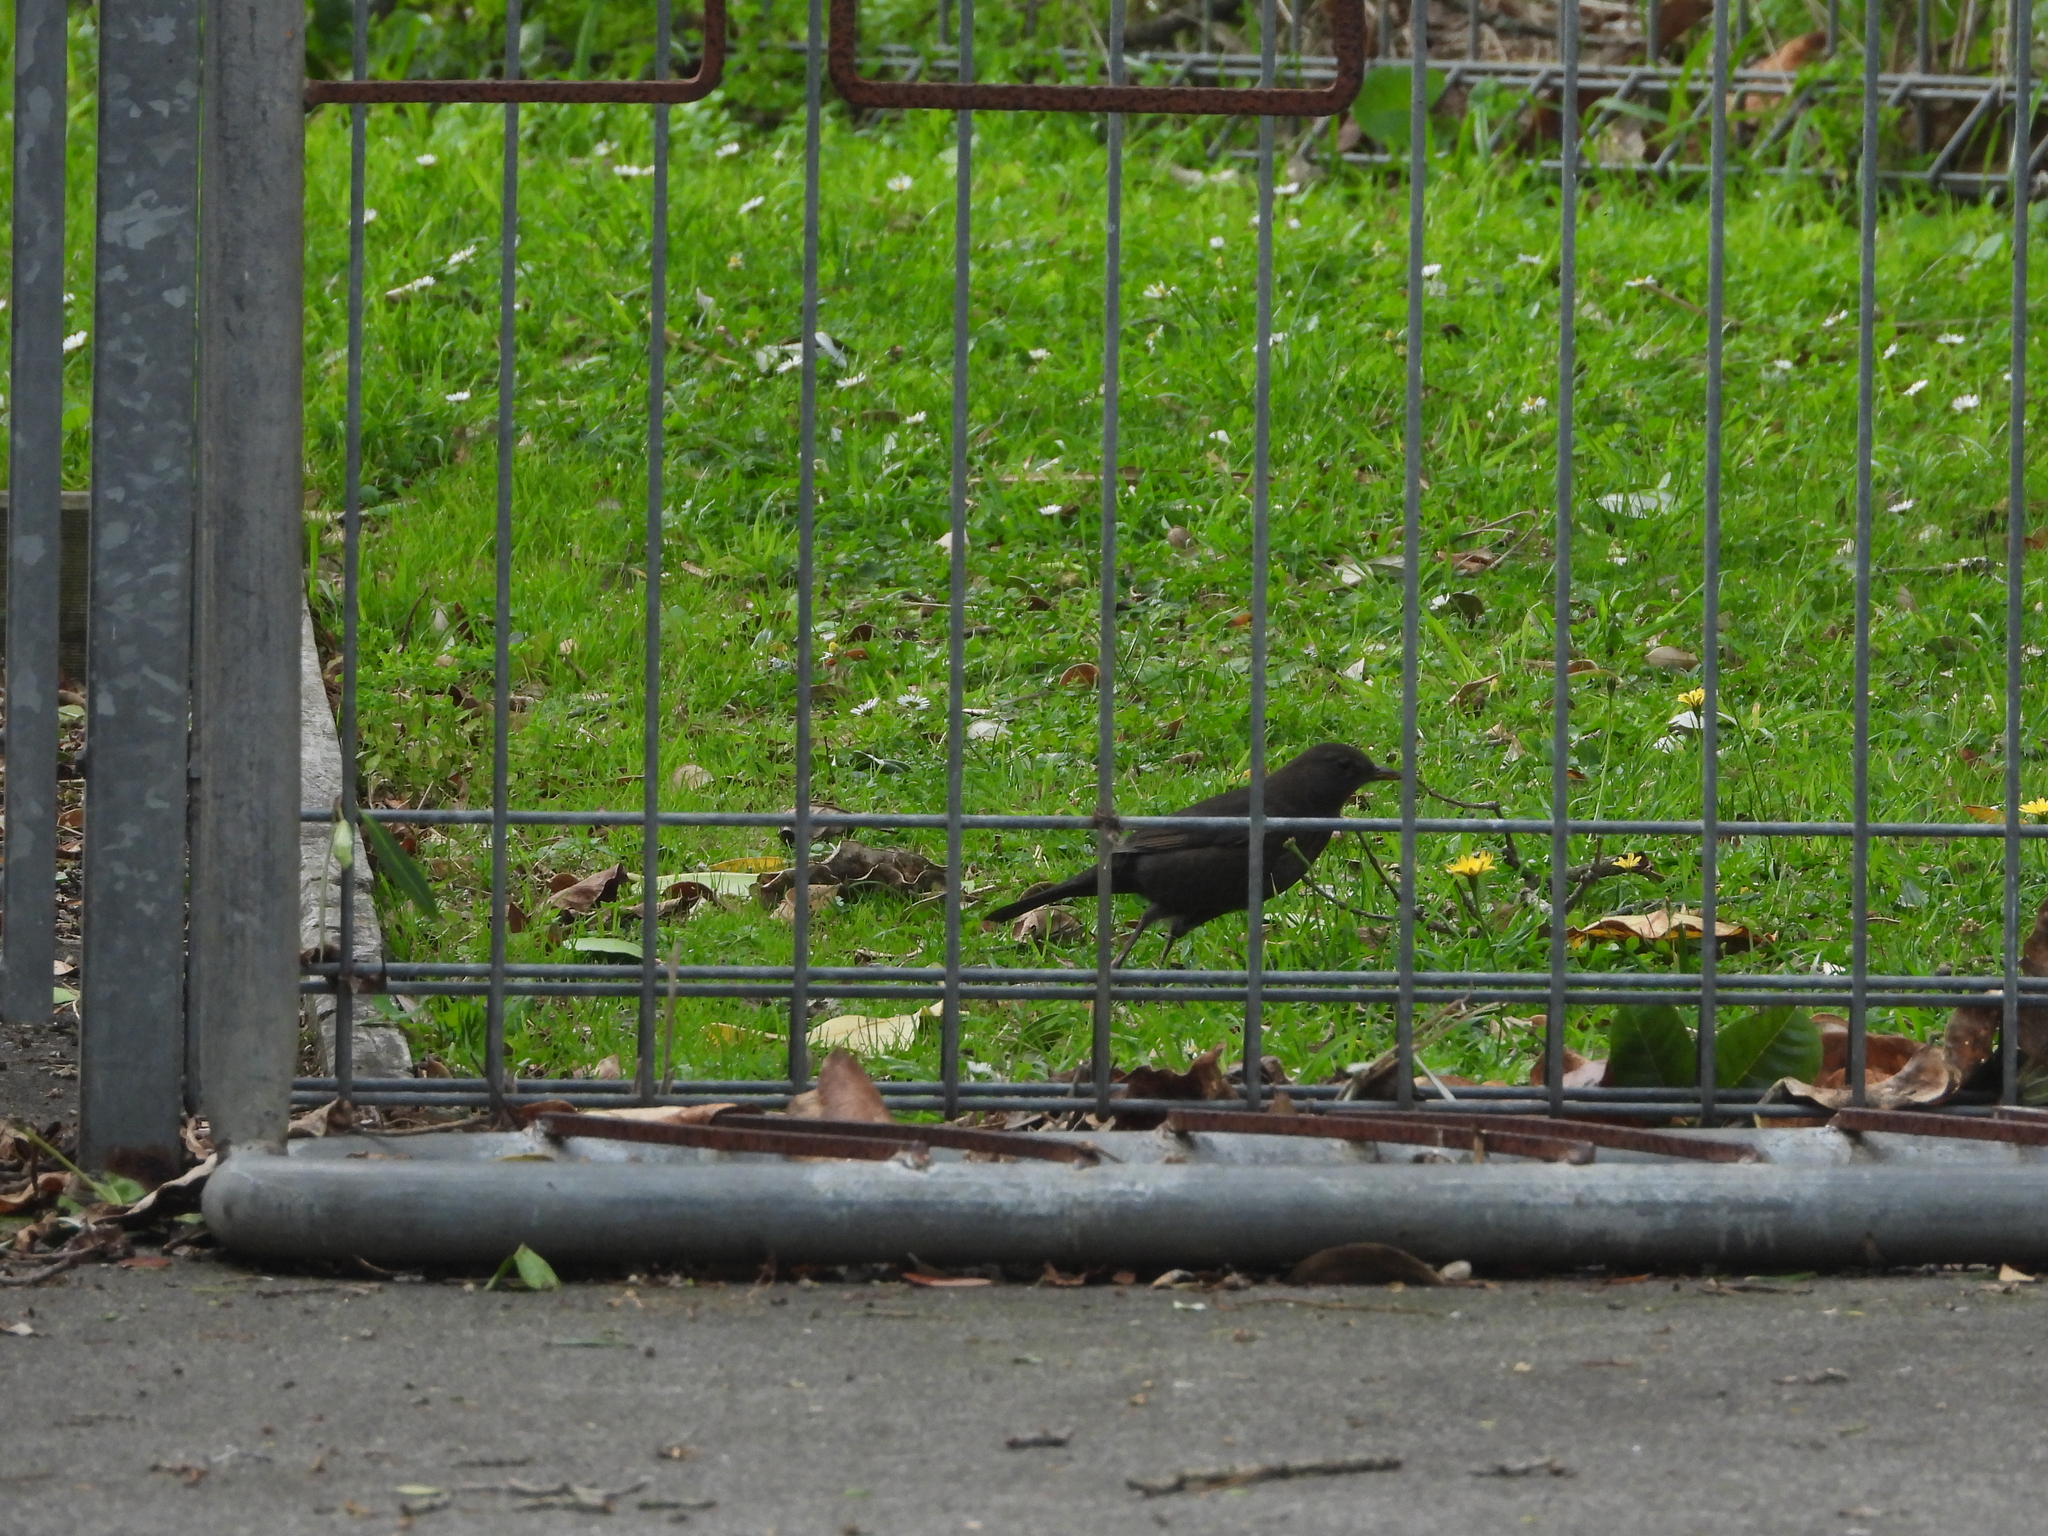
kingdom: Animalia
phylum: Chordata
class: Aves
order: Passeriformes
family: Turdidae
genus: Turdus
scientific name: Turdus merula
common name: Common blackbird
